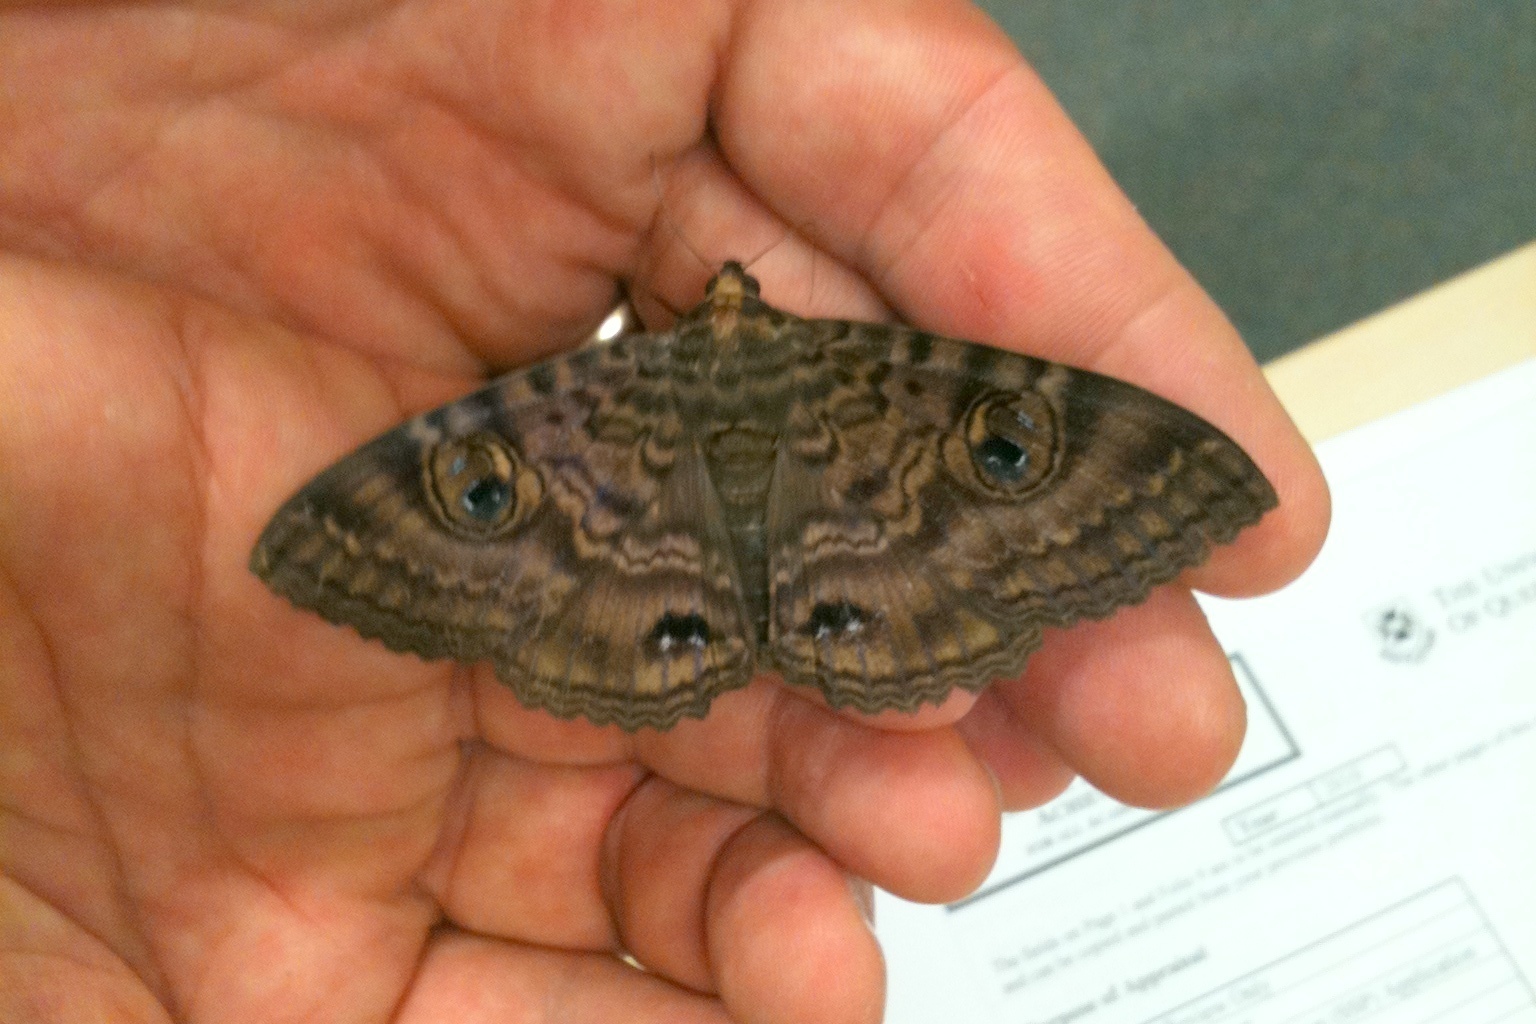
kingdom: Animalia
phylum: Arthropoda
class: Insecta
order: Lepidoptera
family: Erebidae
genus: Speiredonia
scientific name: Speiredonia spectans
